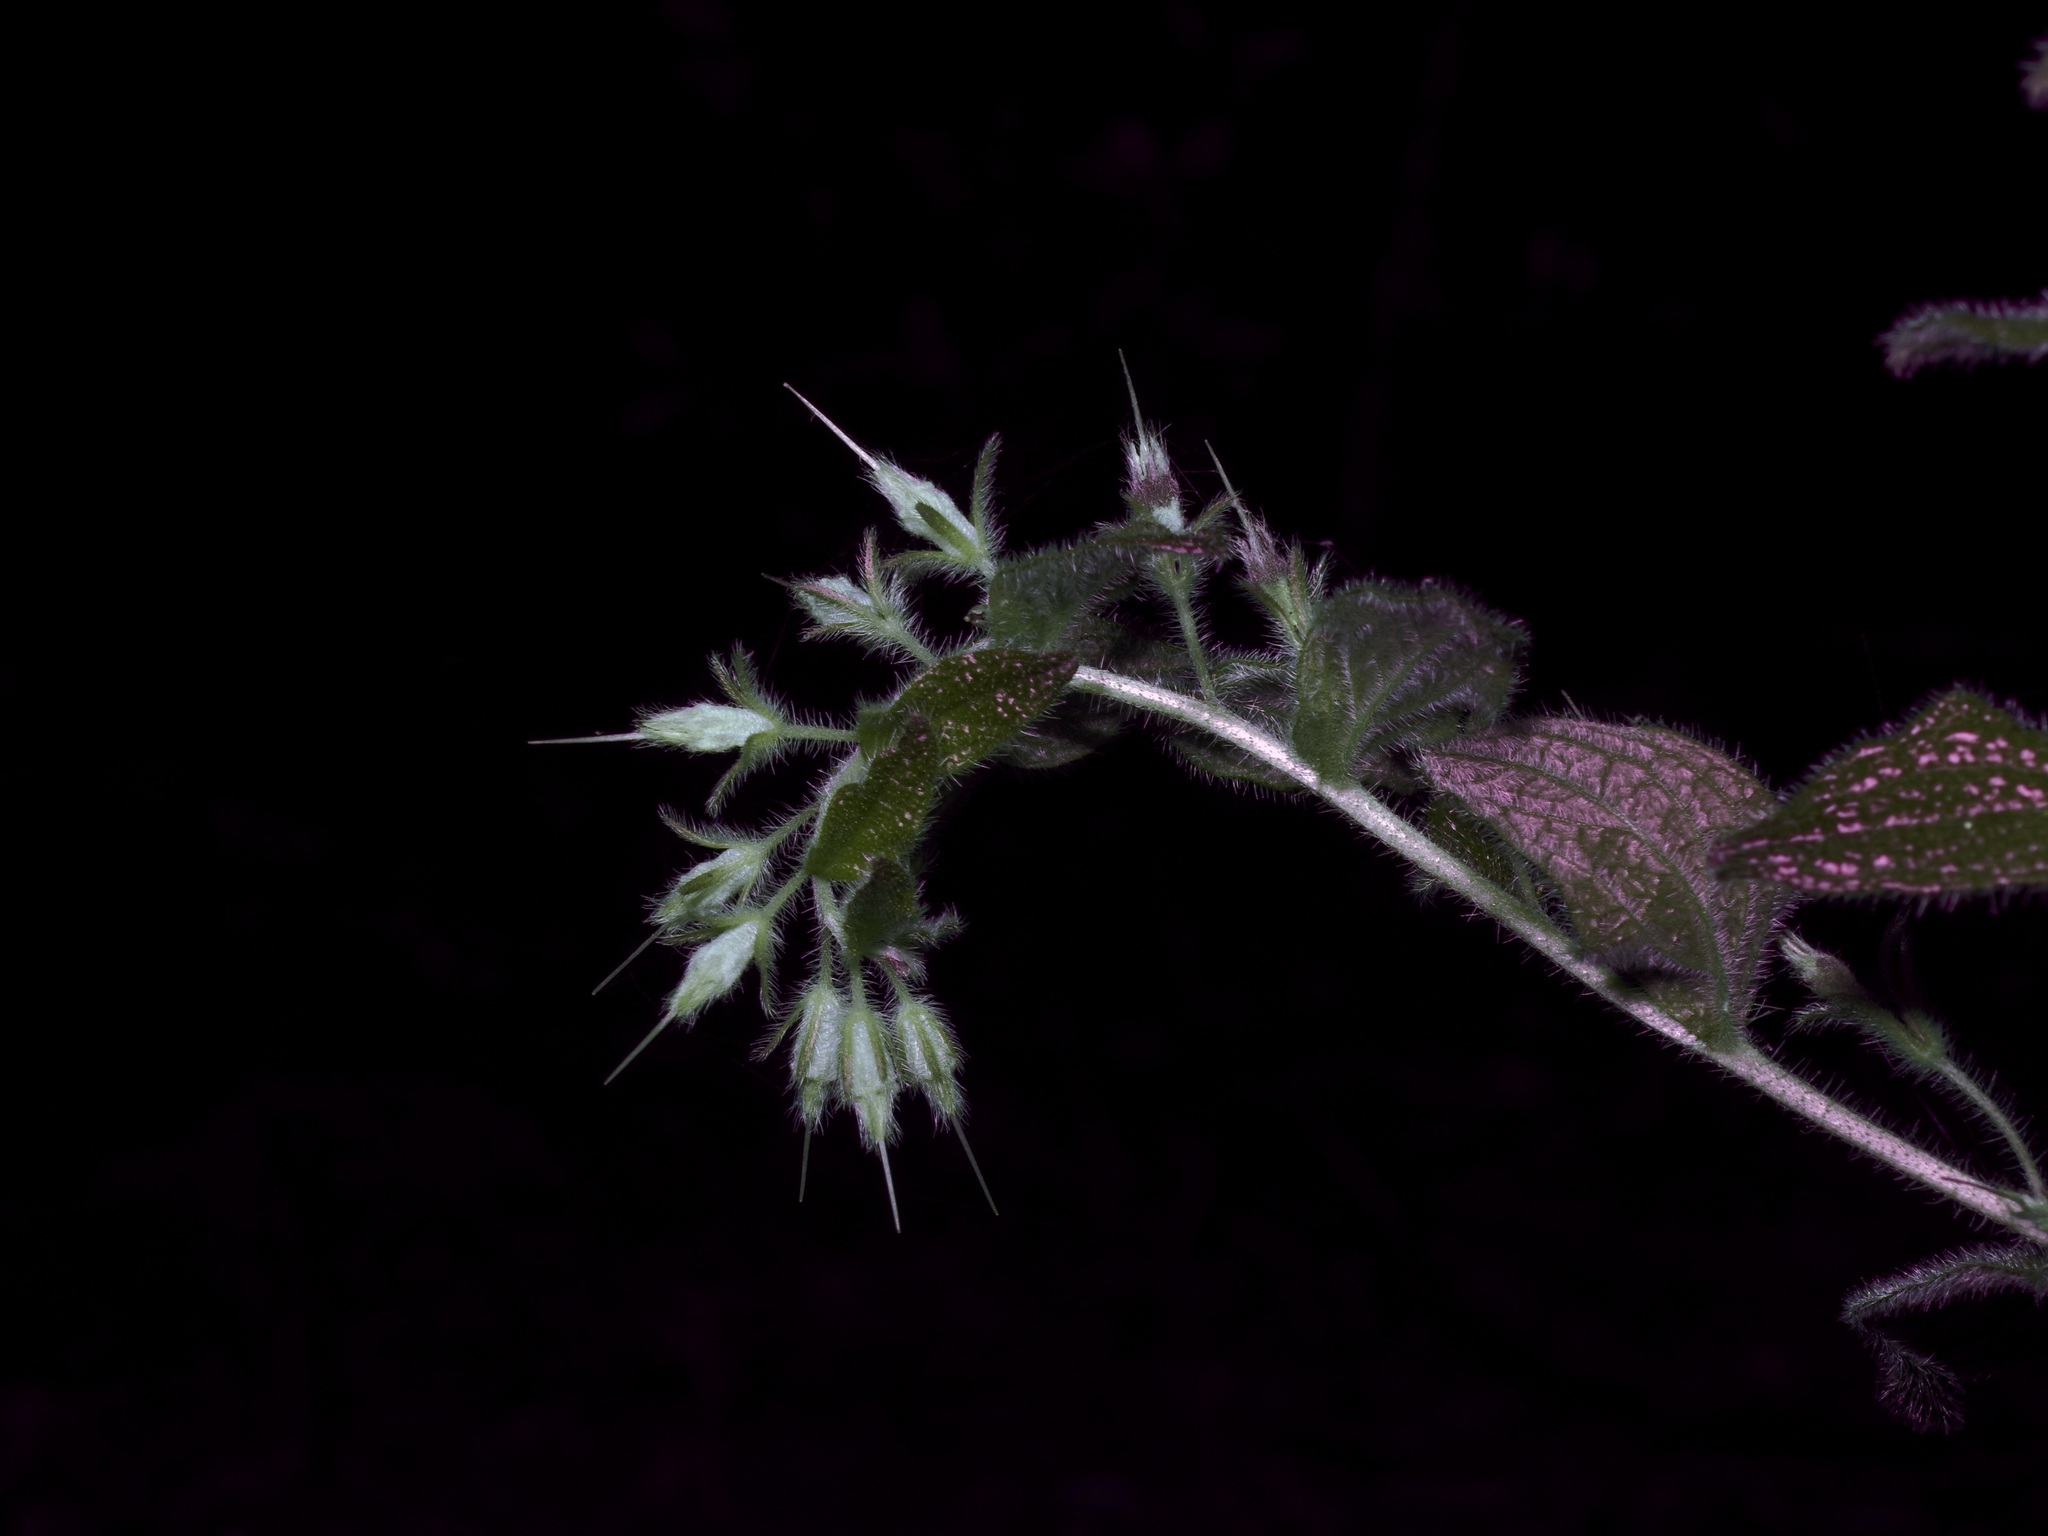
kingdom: Plantae
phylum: Tracheophyta
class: Magnoliopsida
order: Boraginales
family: Boraginaceae
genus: Lithospermum
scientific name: Lithospermum helleri
